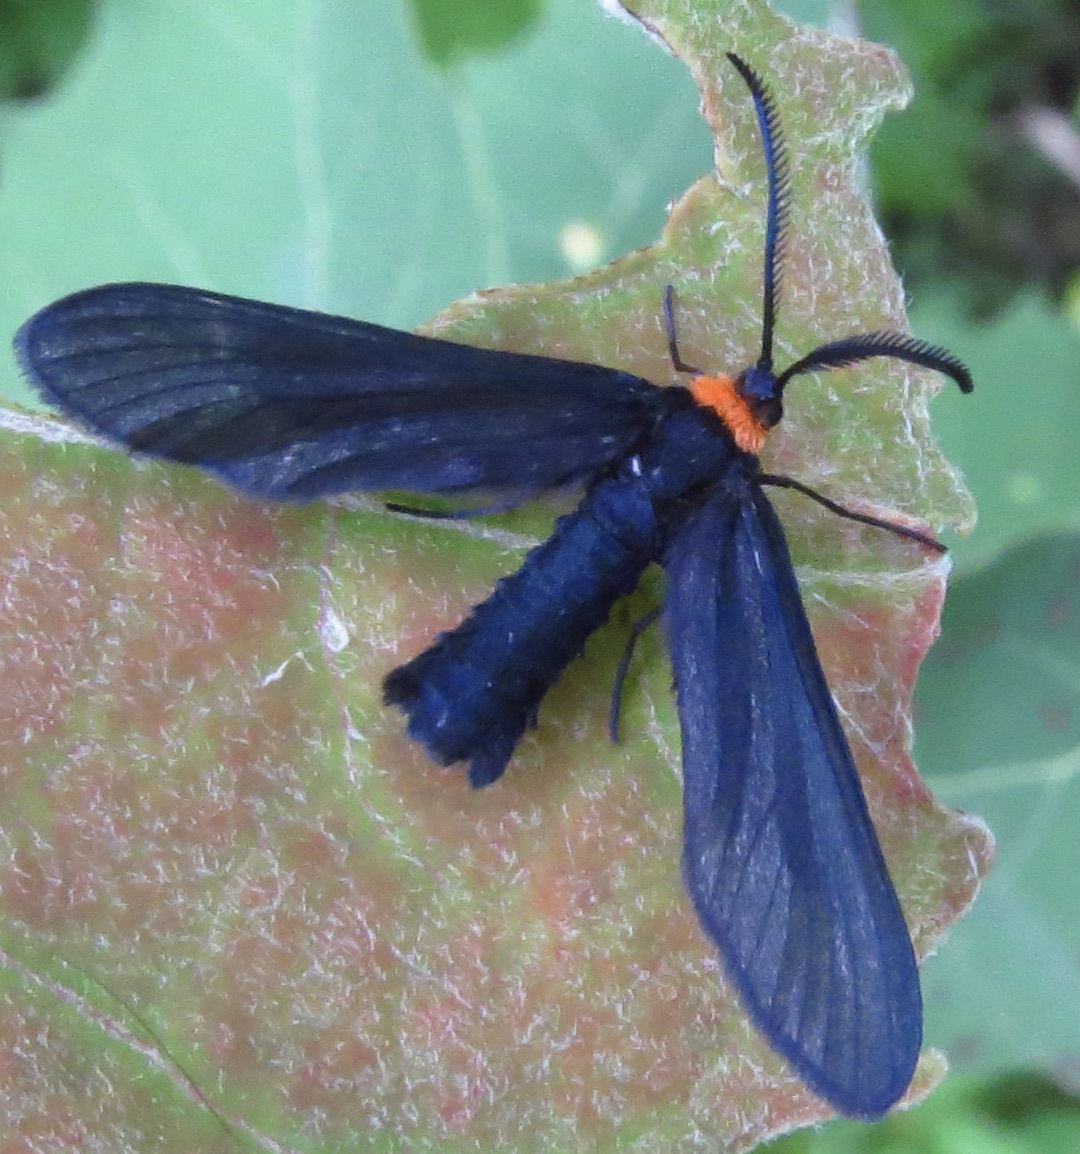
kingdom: Animalia
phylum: Arthropoda
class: Insecta
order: Lepidoptera
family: Zygaenidae
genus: Harrisina
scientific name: Harrisina americana
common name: Grapeleaf skeletonizer moth
